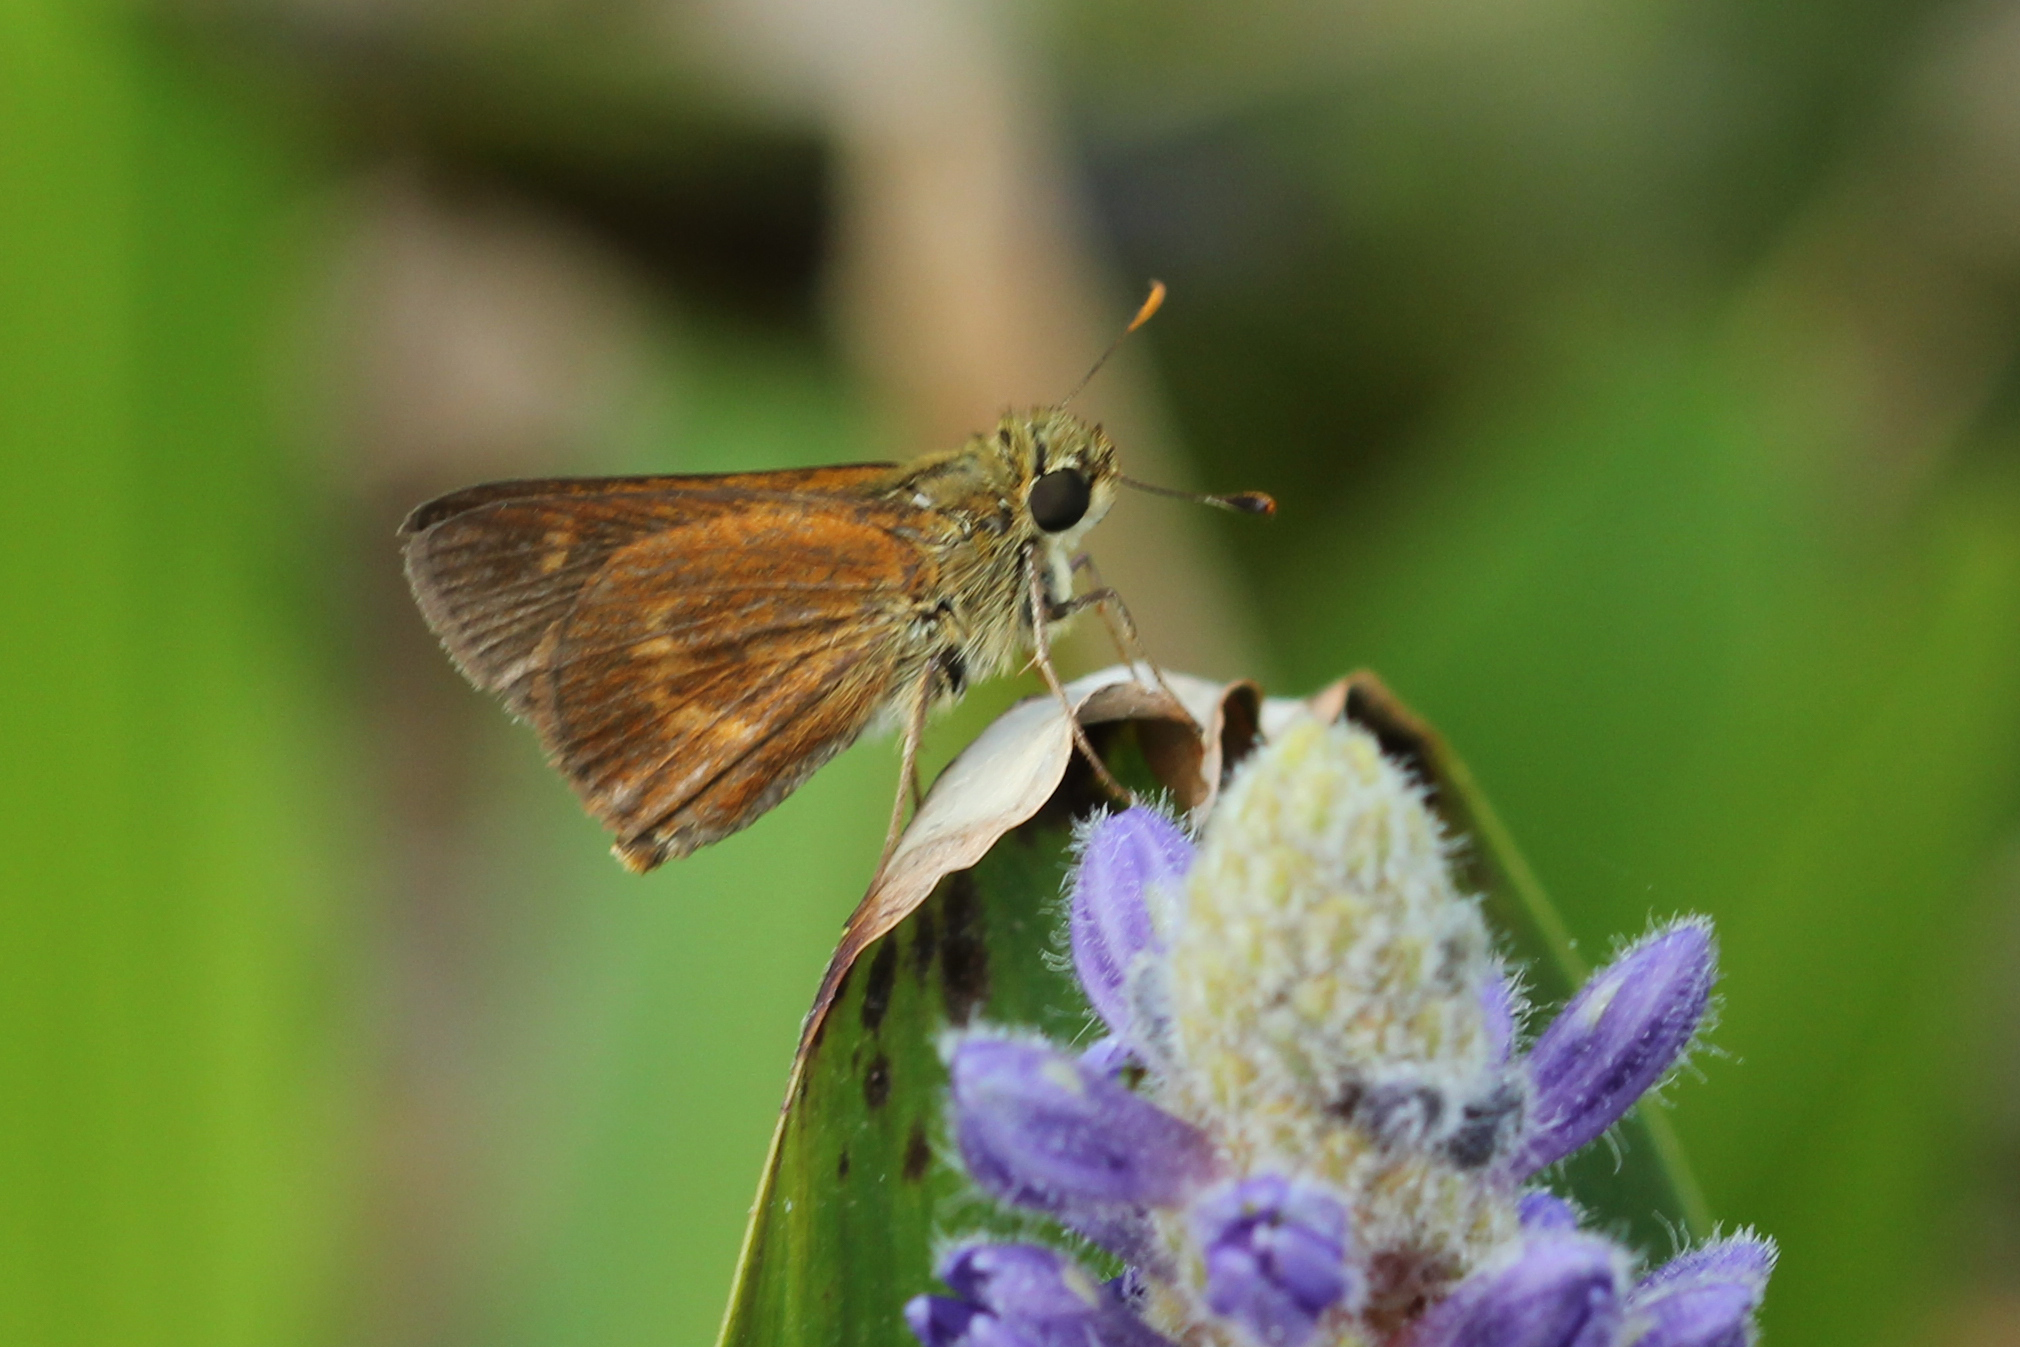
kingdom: Animalia
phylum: Arthropoda
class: Insecta
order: Lepidoptera
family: Hesperiidae
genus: Polites
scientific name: Polites otho
